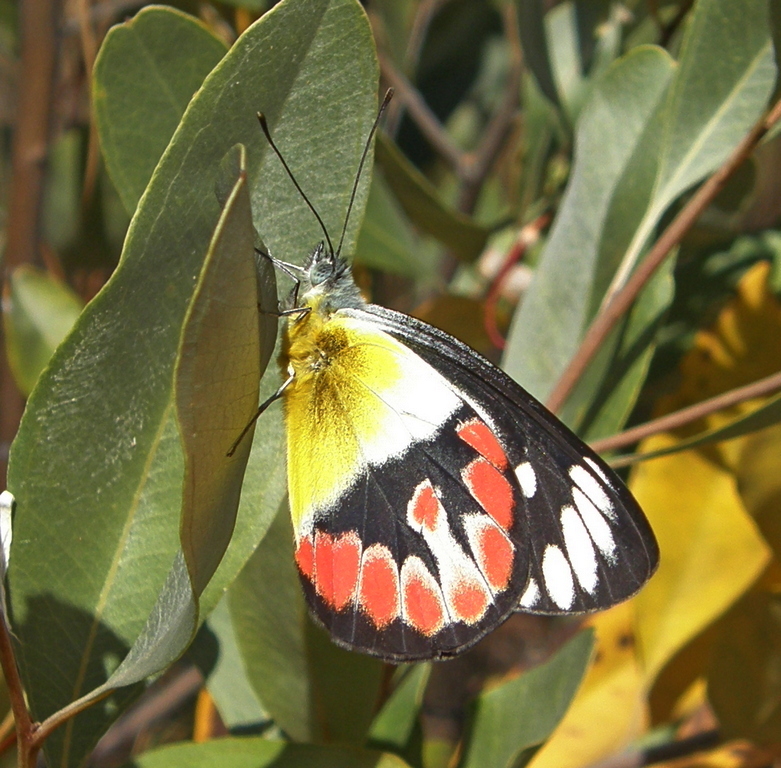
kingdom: Animalia
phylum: Arthropoda
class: Insecta
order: Lepidoptera
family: Pieridae
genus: Delias
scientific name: Delias argenthona
